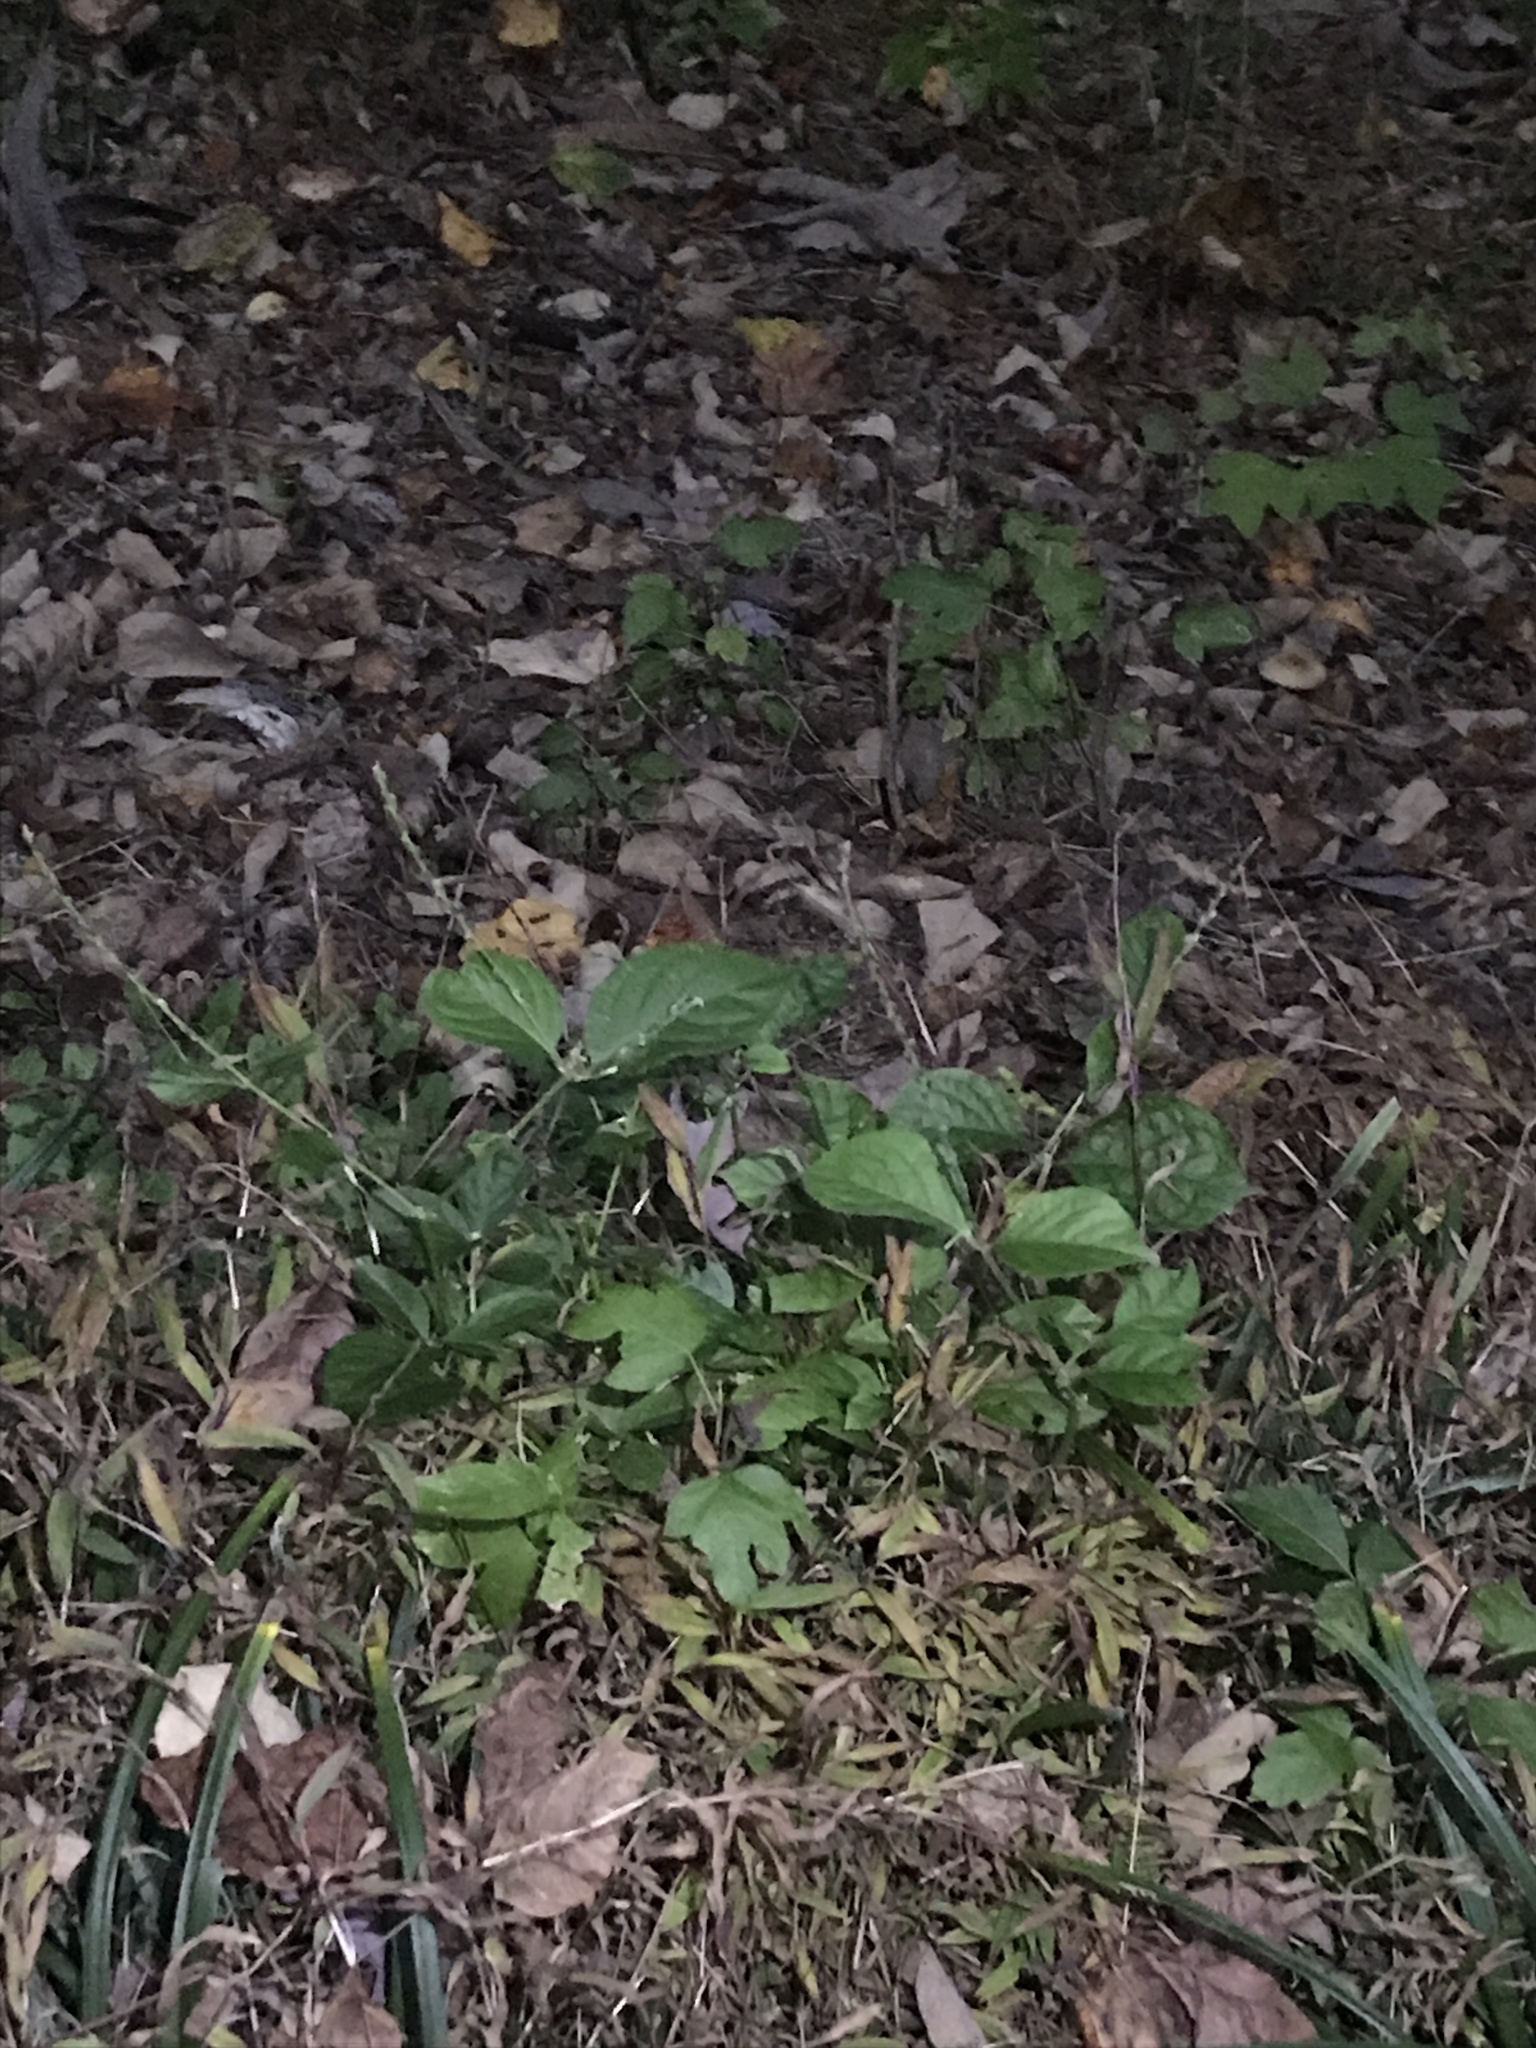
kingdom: Plantae
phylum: Tracheophyta
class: Magnoliopsida
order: Caryophyllales
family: Amaranthaceae
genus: Achyranthes
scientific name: Achyranthes bidentata
